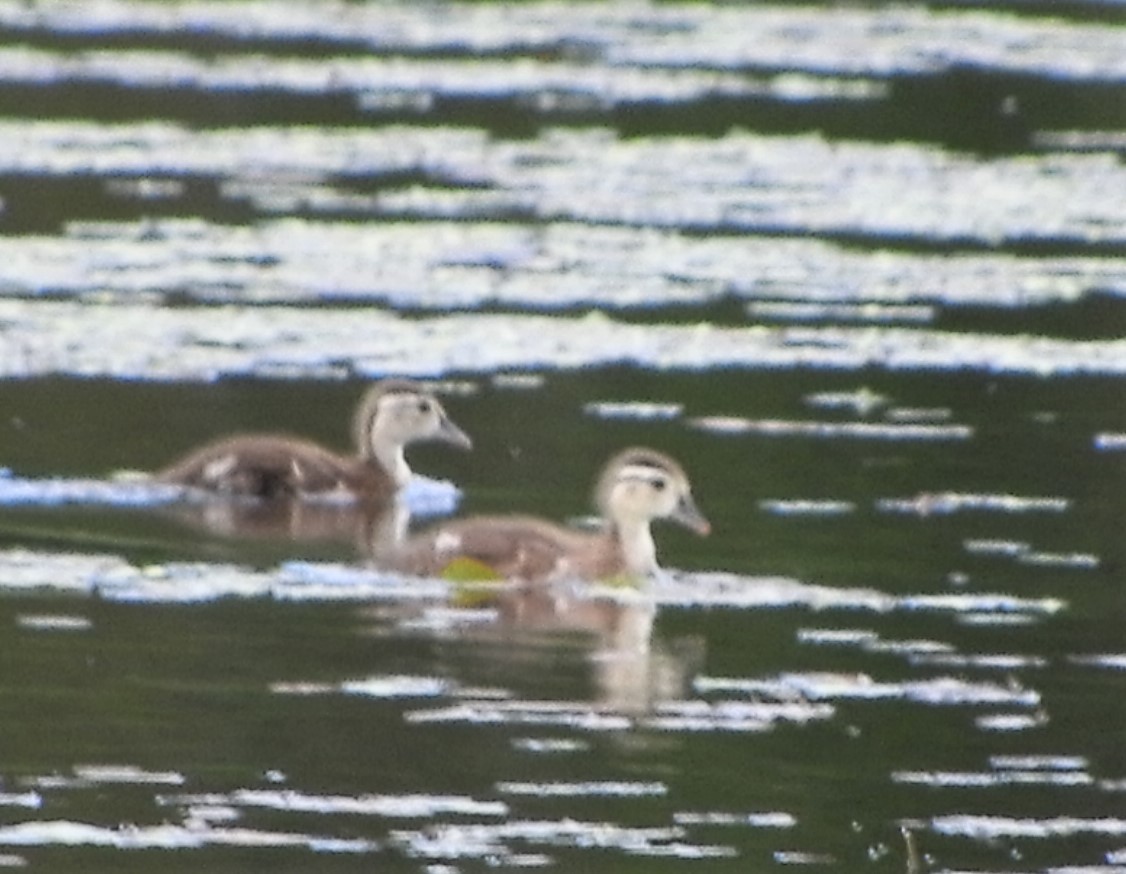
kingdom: Animalia
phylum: Chordata
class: Aves
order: Anseriformes
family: Anatidae
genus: Aix
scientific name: Aix sponsa
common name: Wood duck
